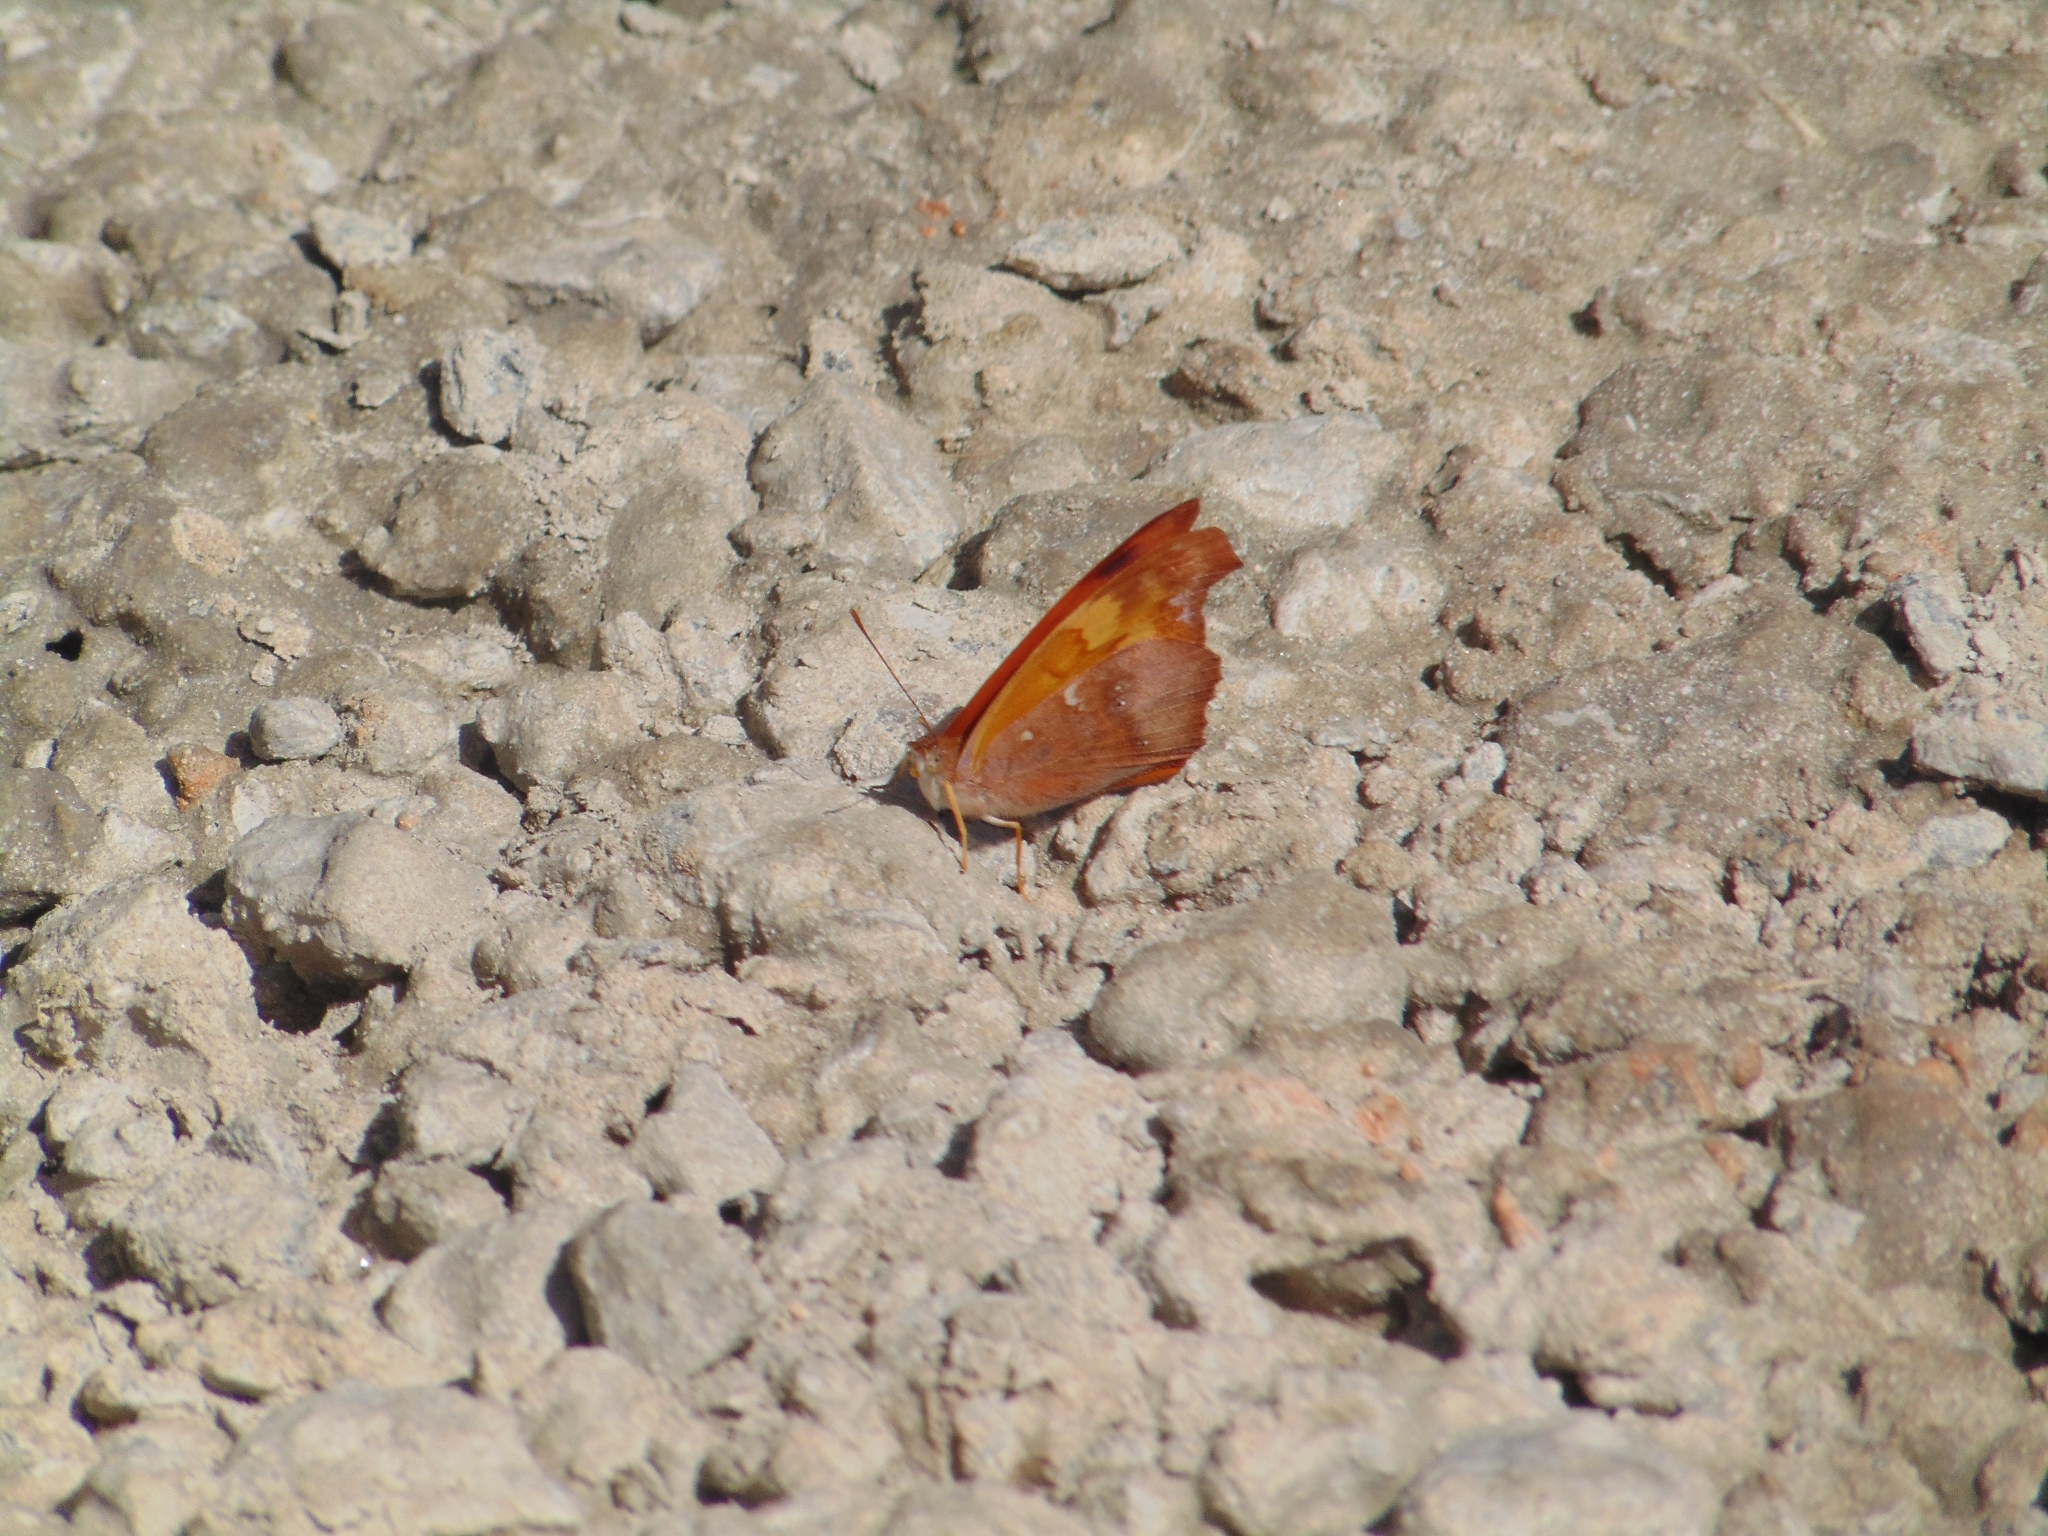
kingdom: Animalia
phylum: Arthropoda
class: Insecta
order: Lepidoptera
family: Nymphalidae
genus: Temenis
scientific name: Temenis laothoe
